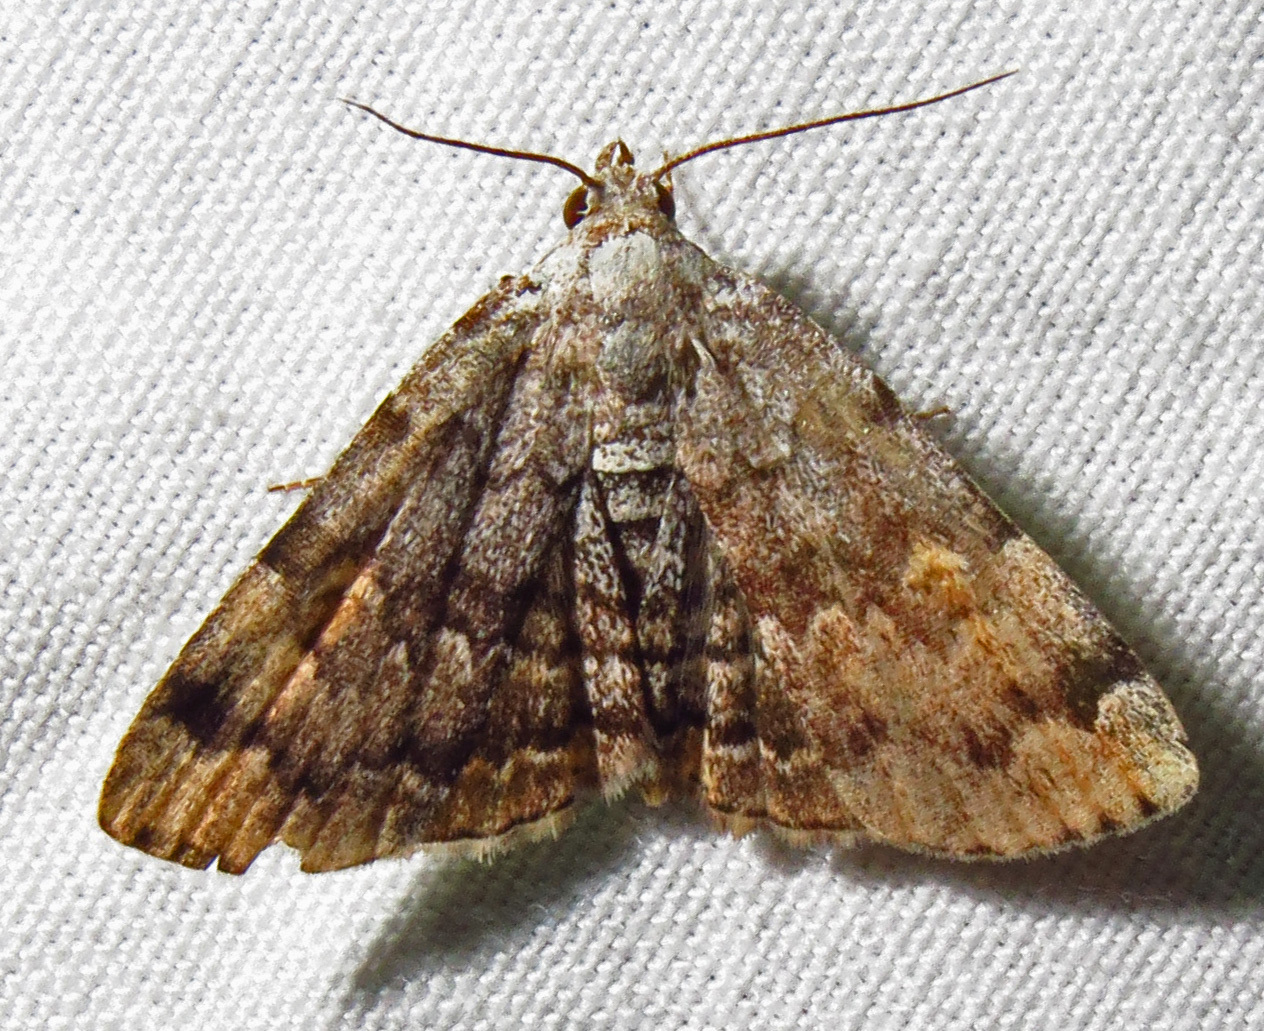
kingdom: Animalia
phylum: Arthropoda
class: Insecta
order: Lepidoptera
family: Erebidae
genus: Idia
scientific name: Idia americalis
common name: American idia moth
